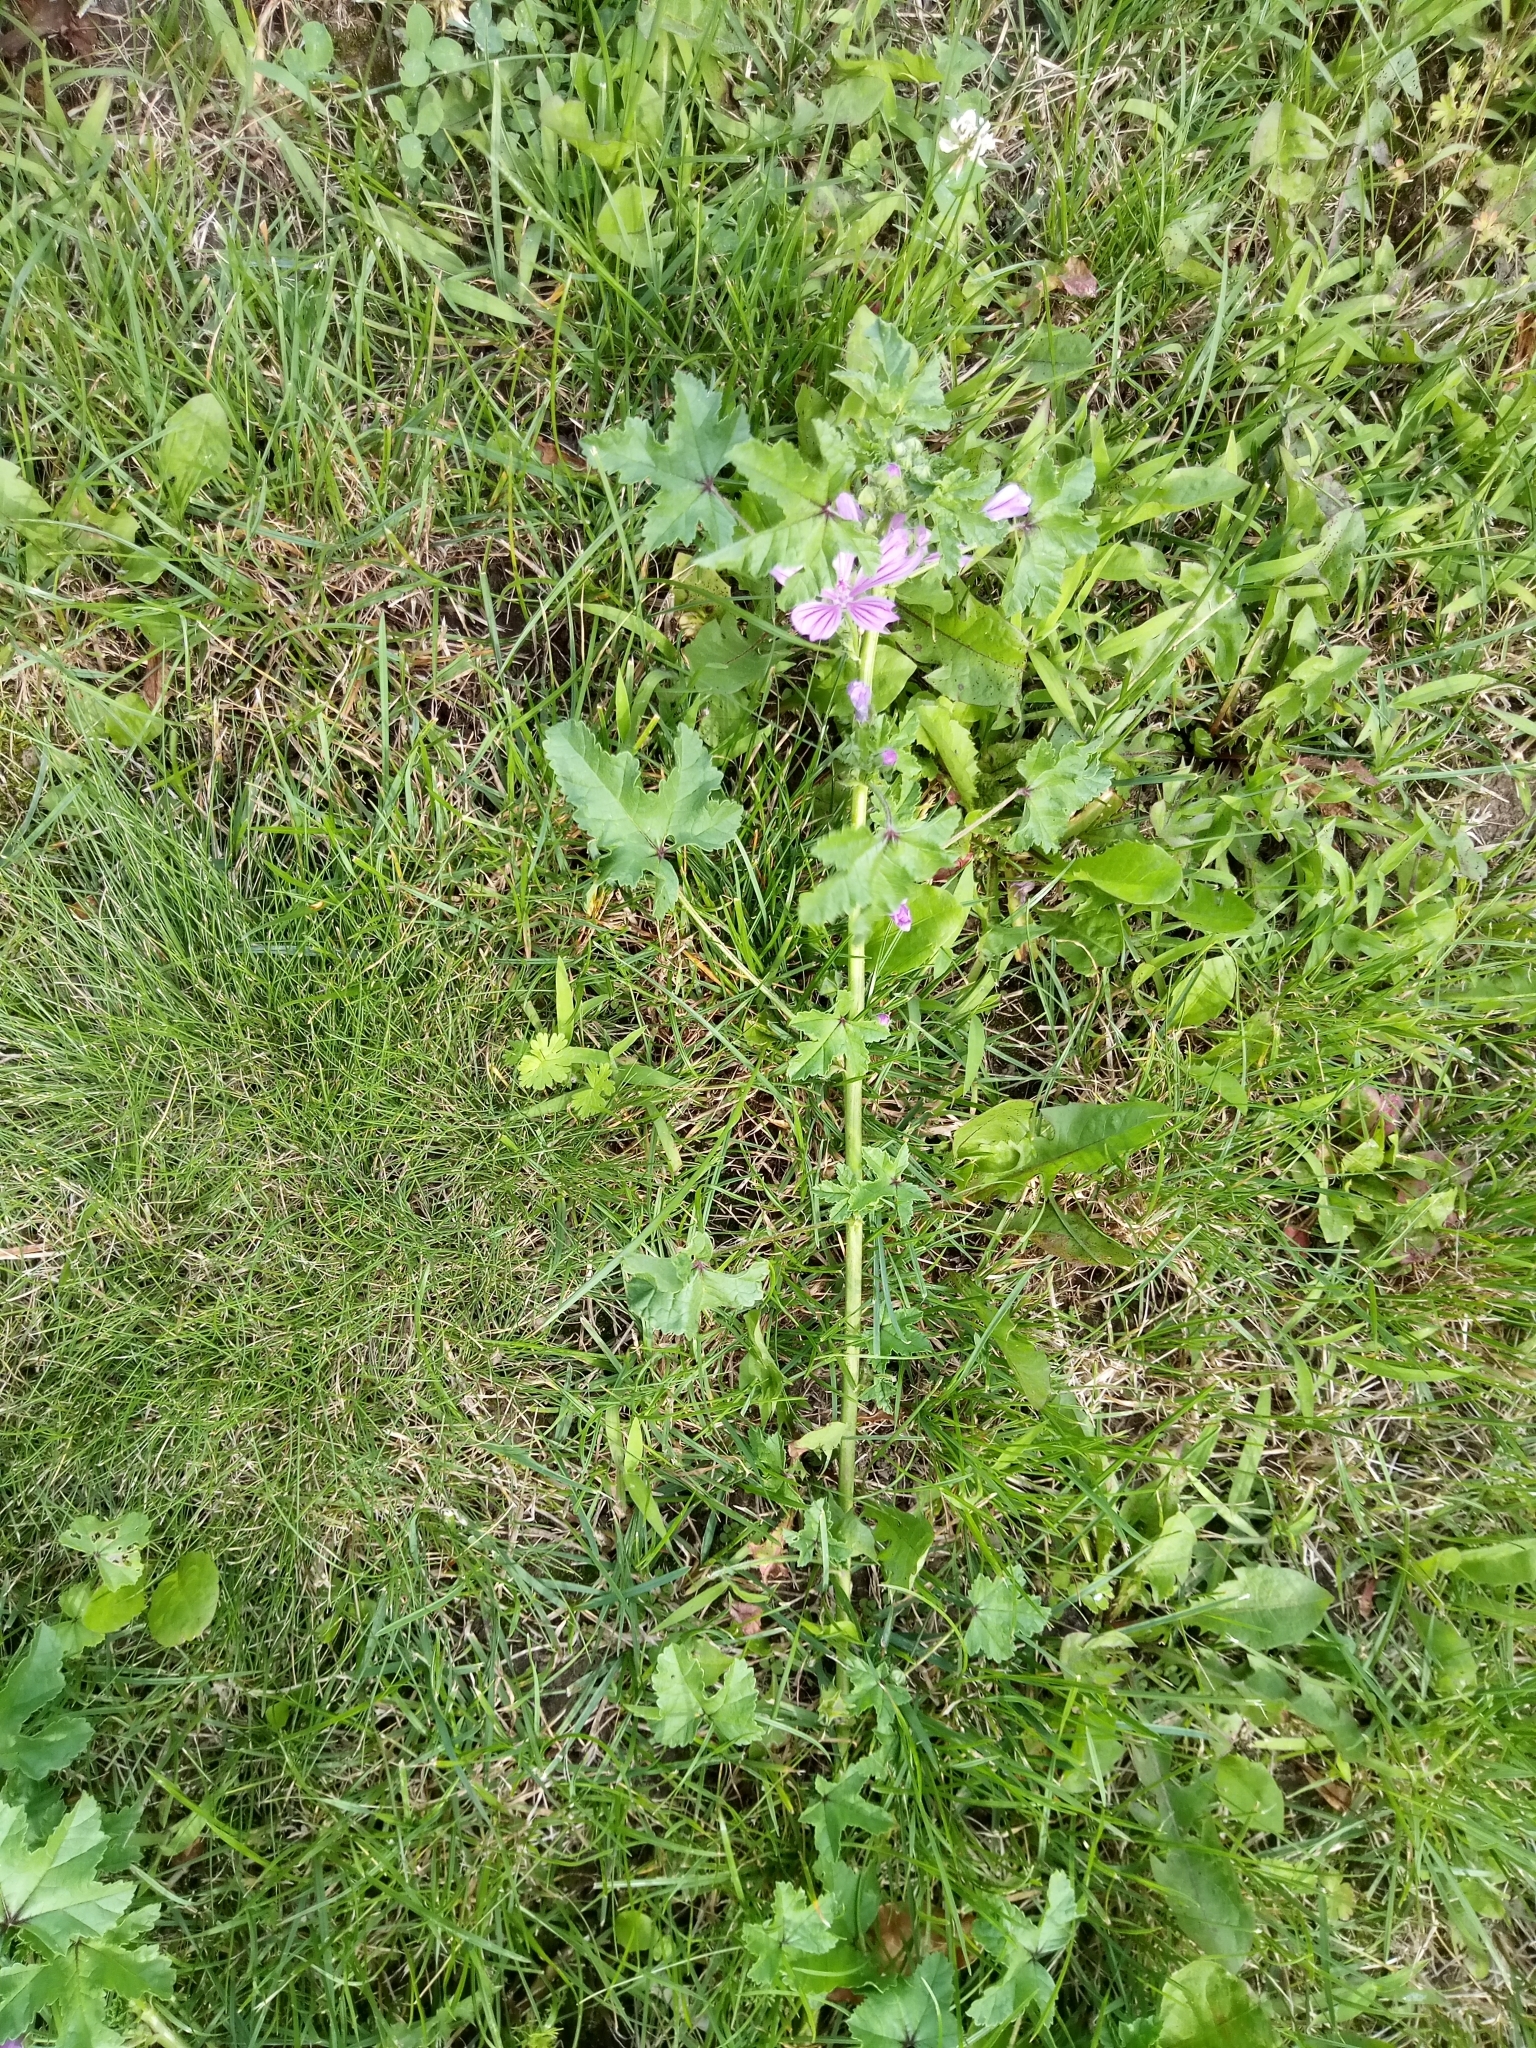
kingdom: Plantae
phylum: Tracheophyta
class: Magnoliopsida
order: Malvales
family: Malvaceae
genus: Malva
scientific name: Malva sylvestris
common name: Common mallow
